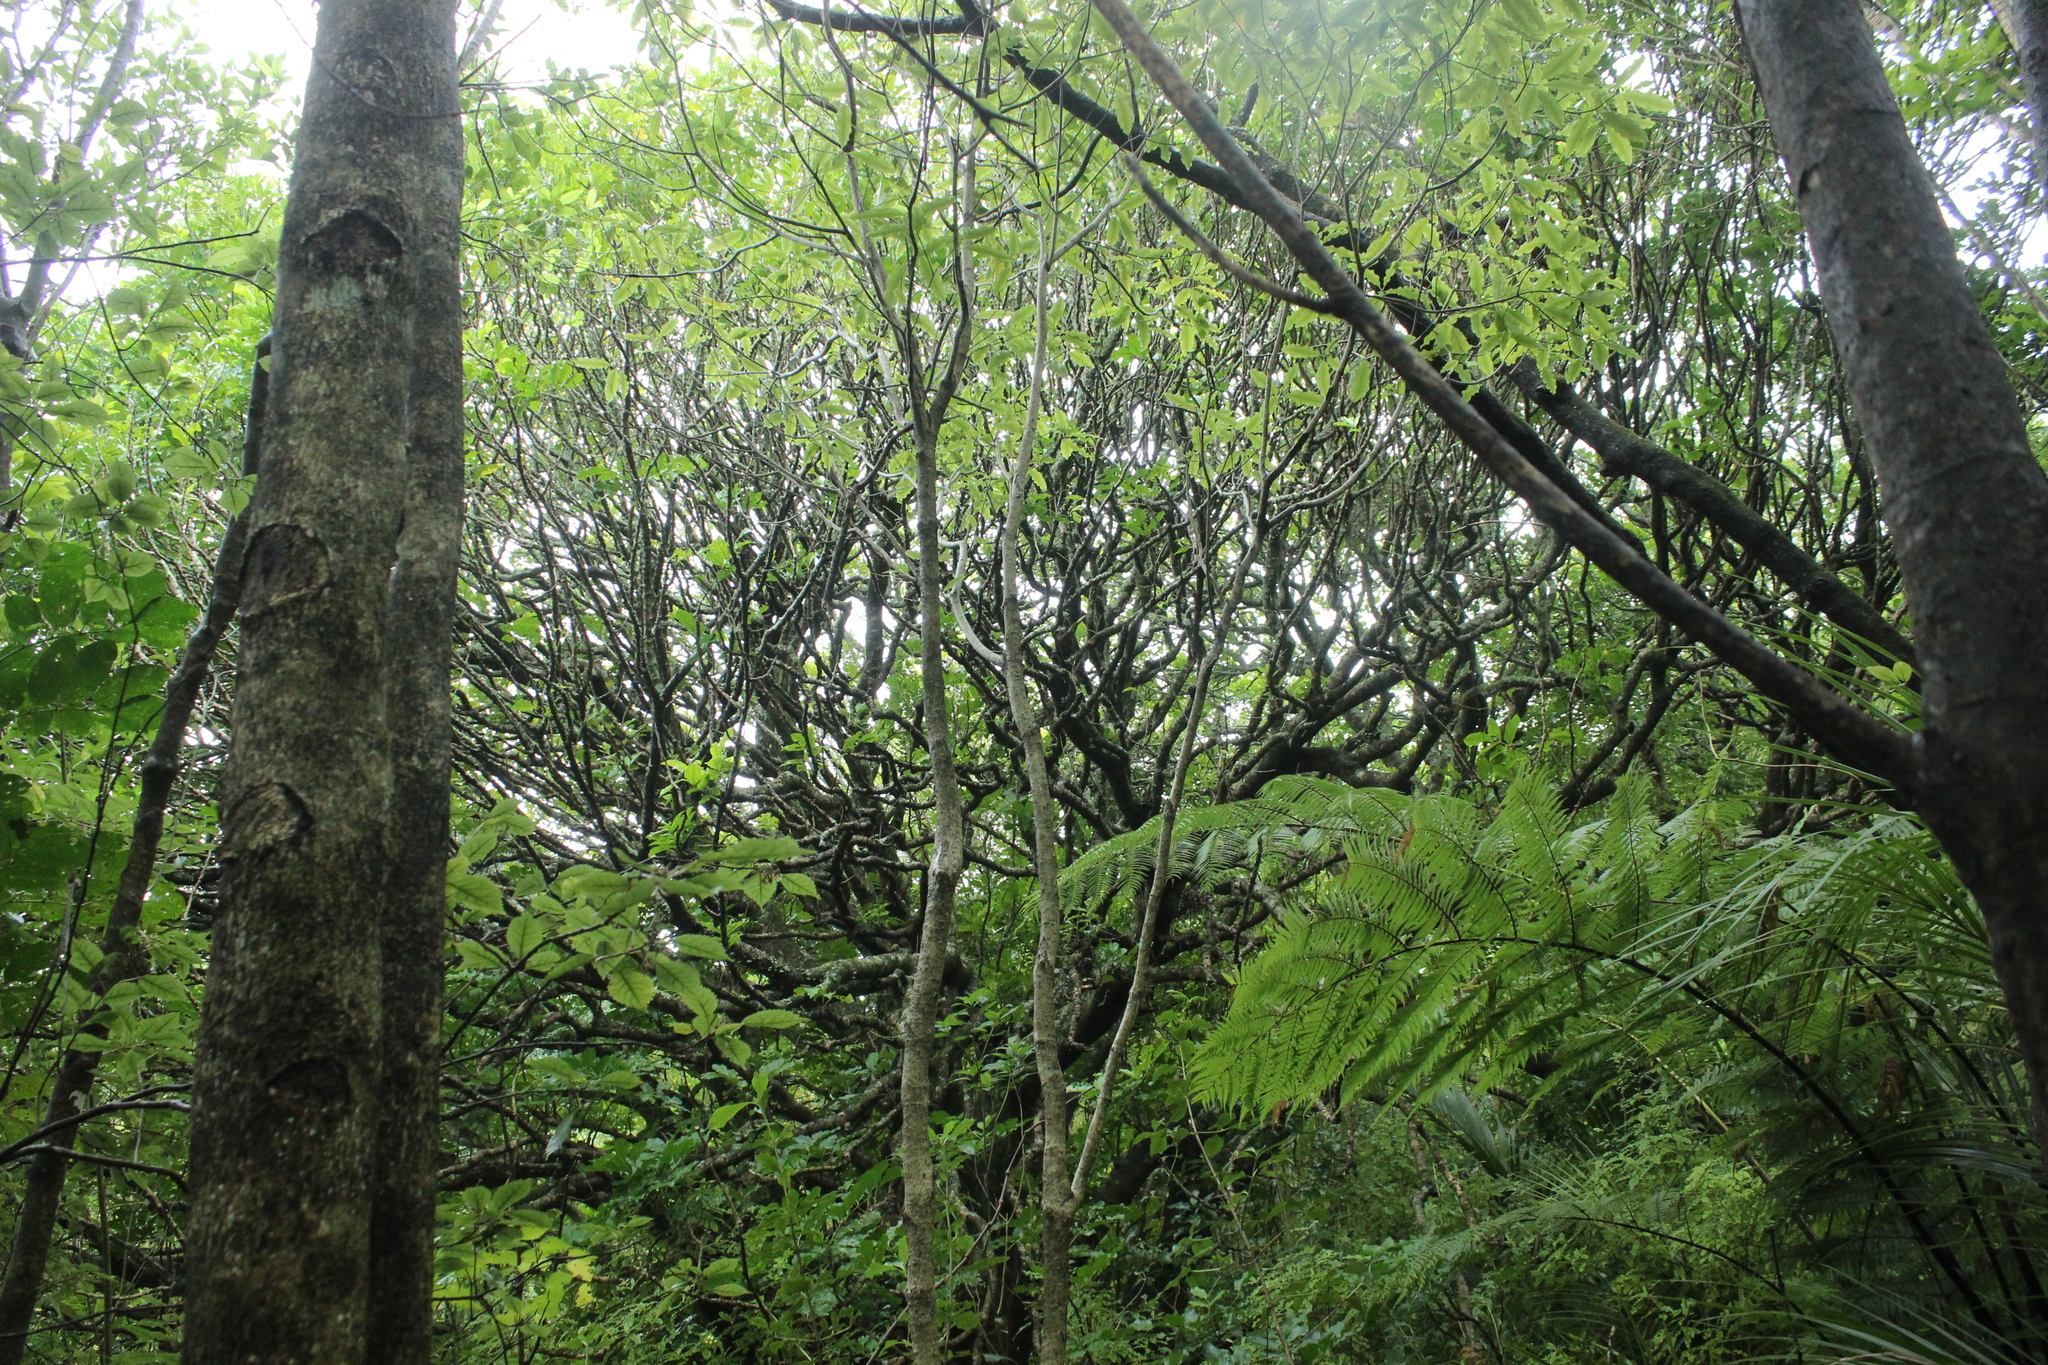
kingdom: Plantae
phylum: Tracheophyta
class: Magnoliopsida
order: Sapindales
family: Meliaceae
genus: Didymocheton
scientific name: Didymocheton spectabilis
